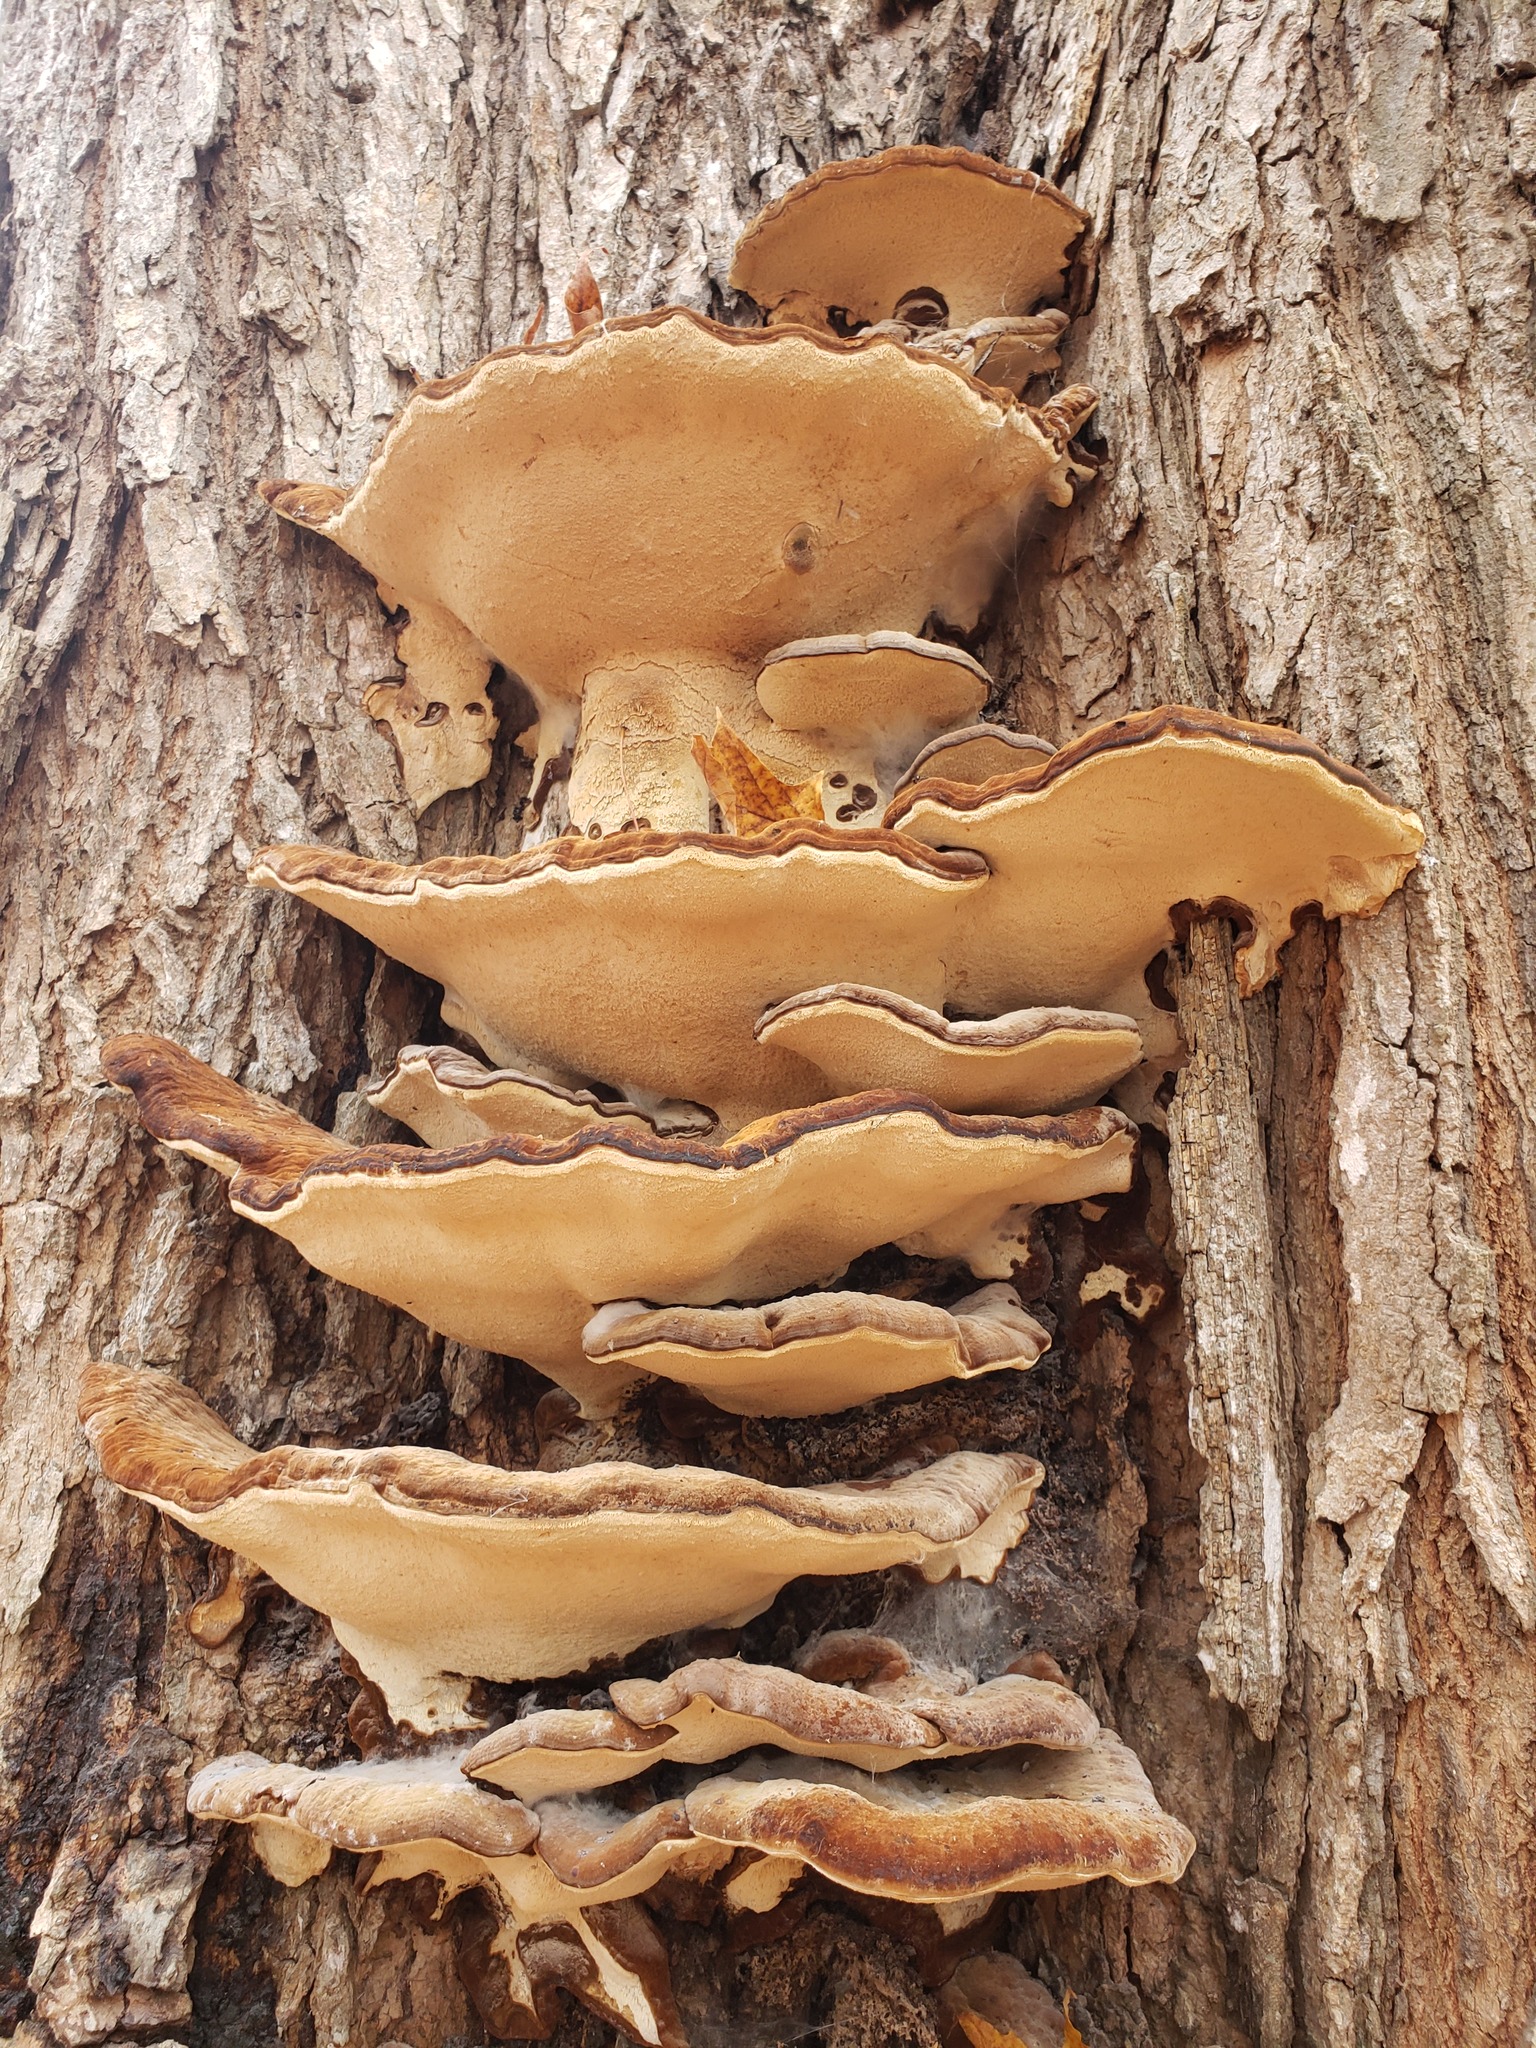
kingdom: Fungi
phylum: Basidiomycota
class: Agaricomycetes
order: Polyporales
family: Ischnodermataceae
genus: Ischnoderma
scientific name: Ischnoderma resinosum
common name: Resinous polypore
